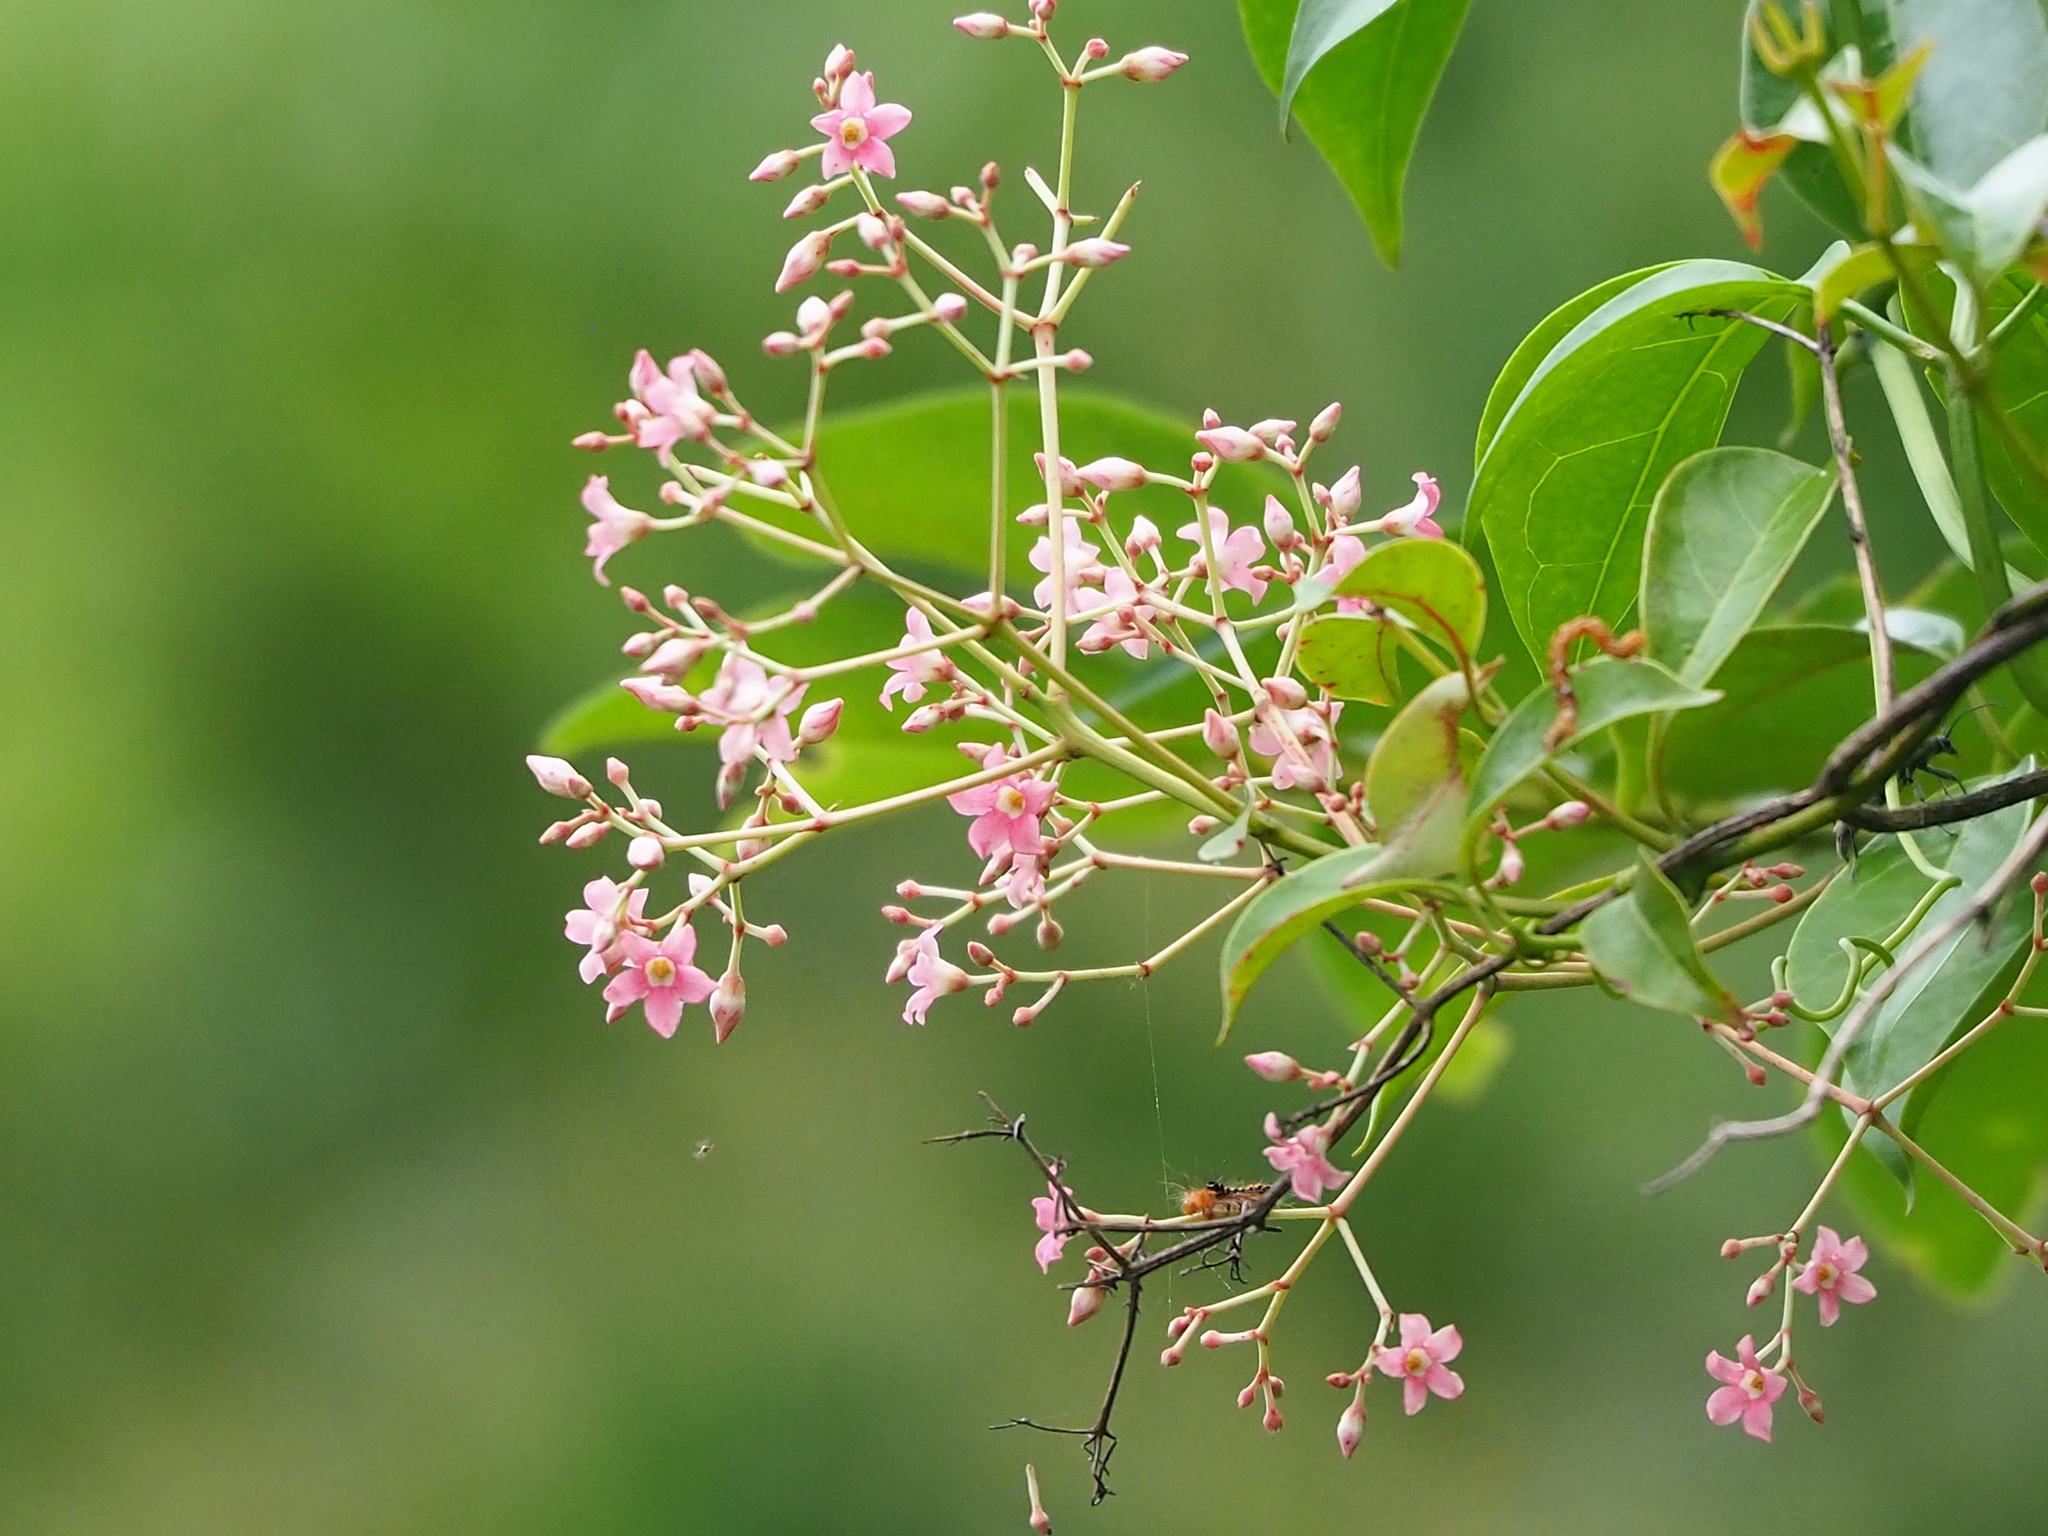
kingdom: Plantae
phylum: Tracheophyta
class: Magnoliopsida
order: Gentianales
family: Apocynaceae
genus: Urceola
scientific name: Urceola rosea
